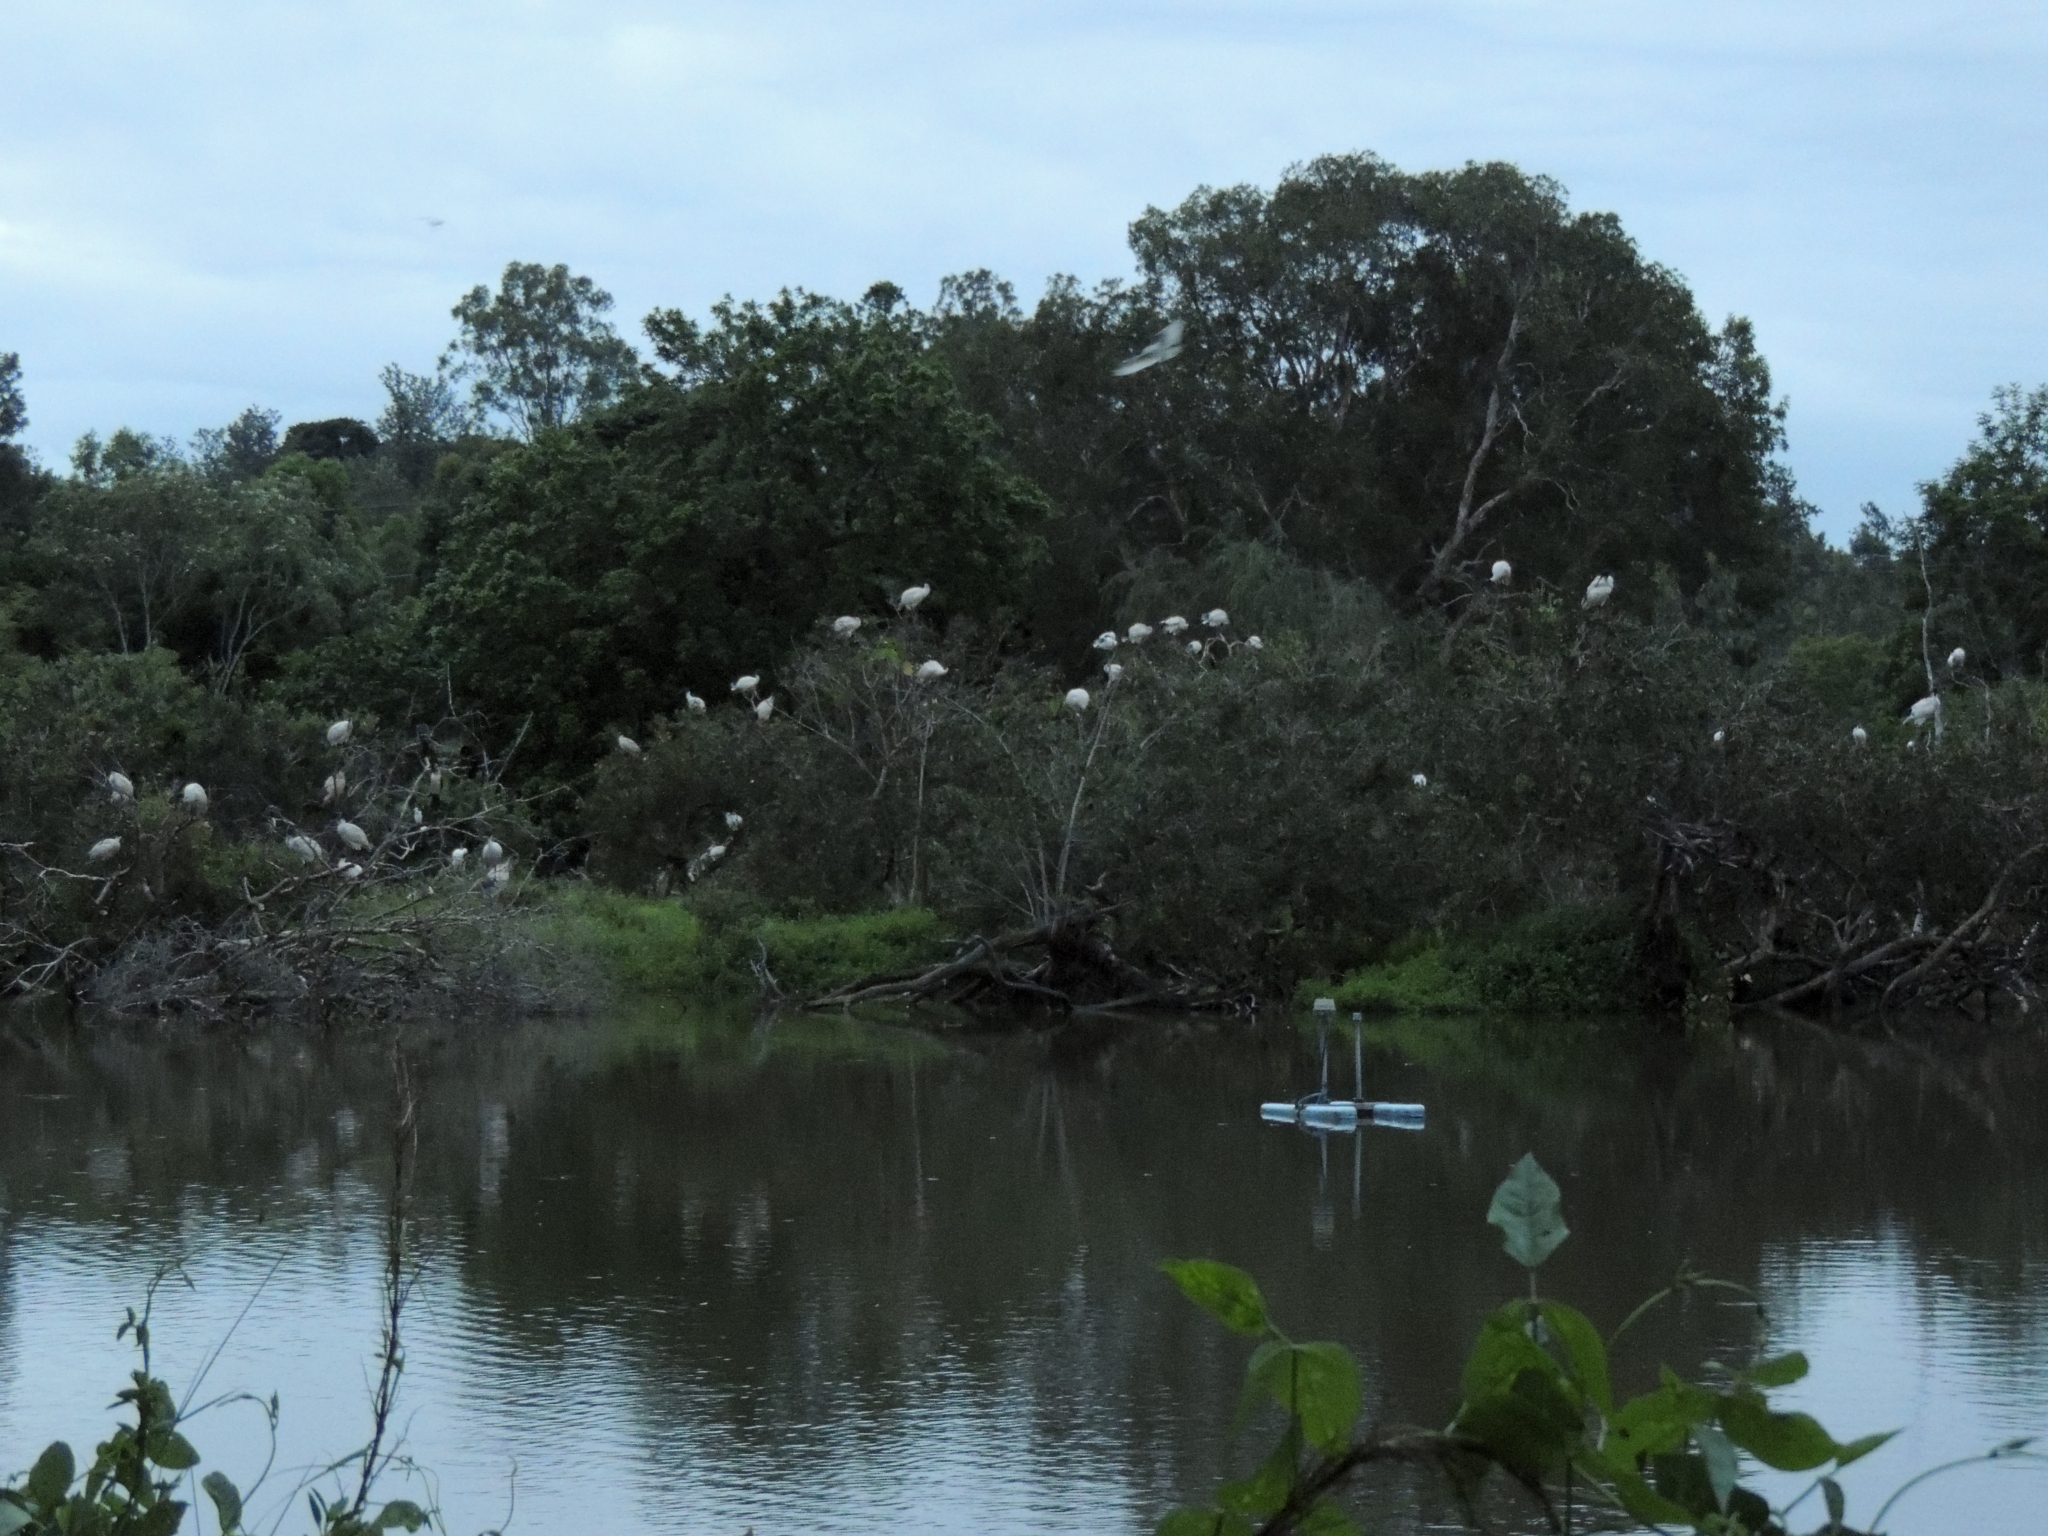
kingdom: Animalia
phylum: Chordata
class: Aves
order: Pelecaniformes
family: Threskiornithidae
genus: Threskiornis
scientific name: Threskiornis molucca
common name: Australian white ibis
